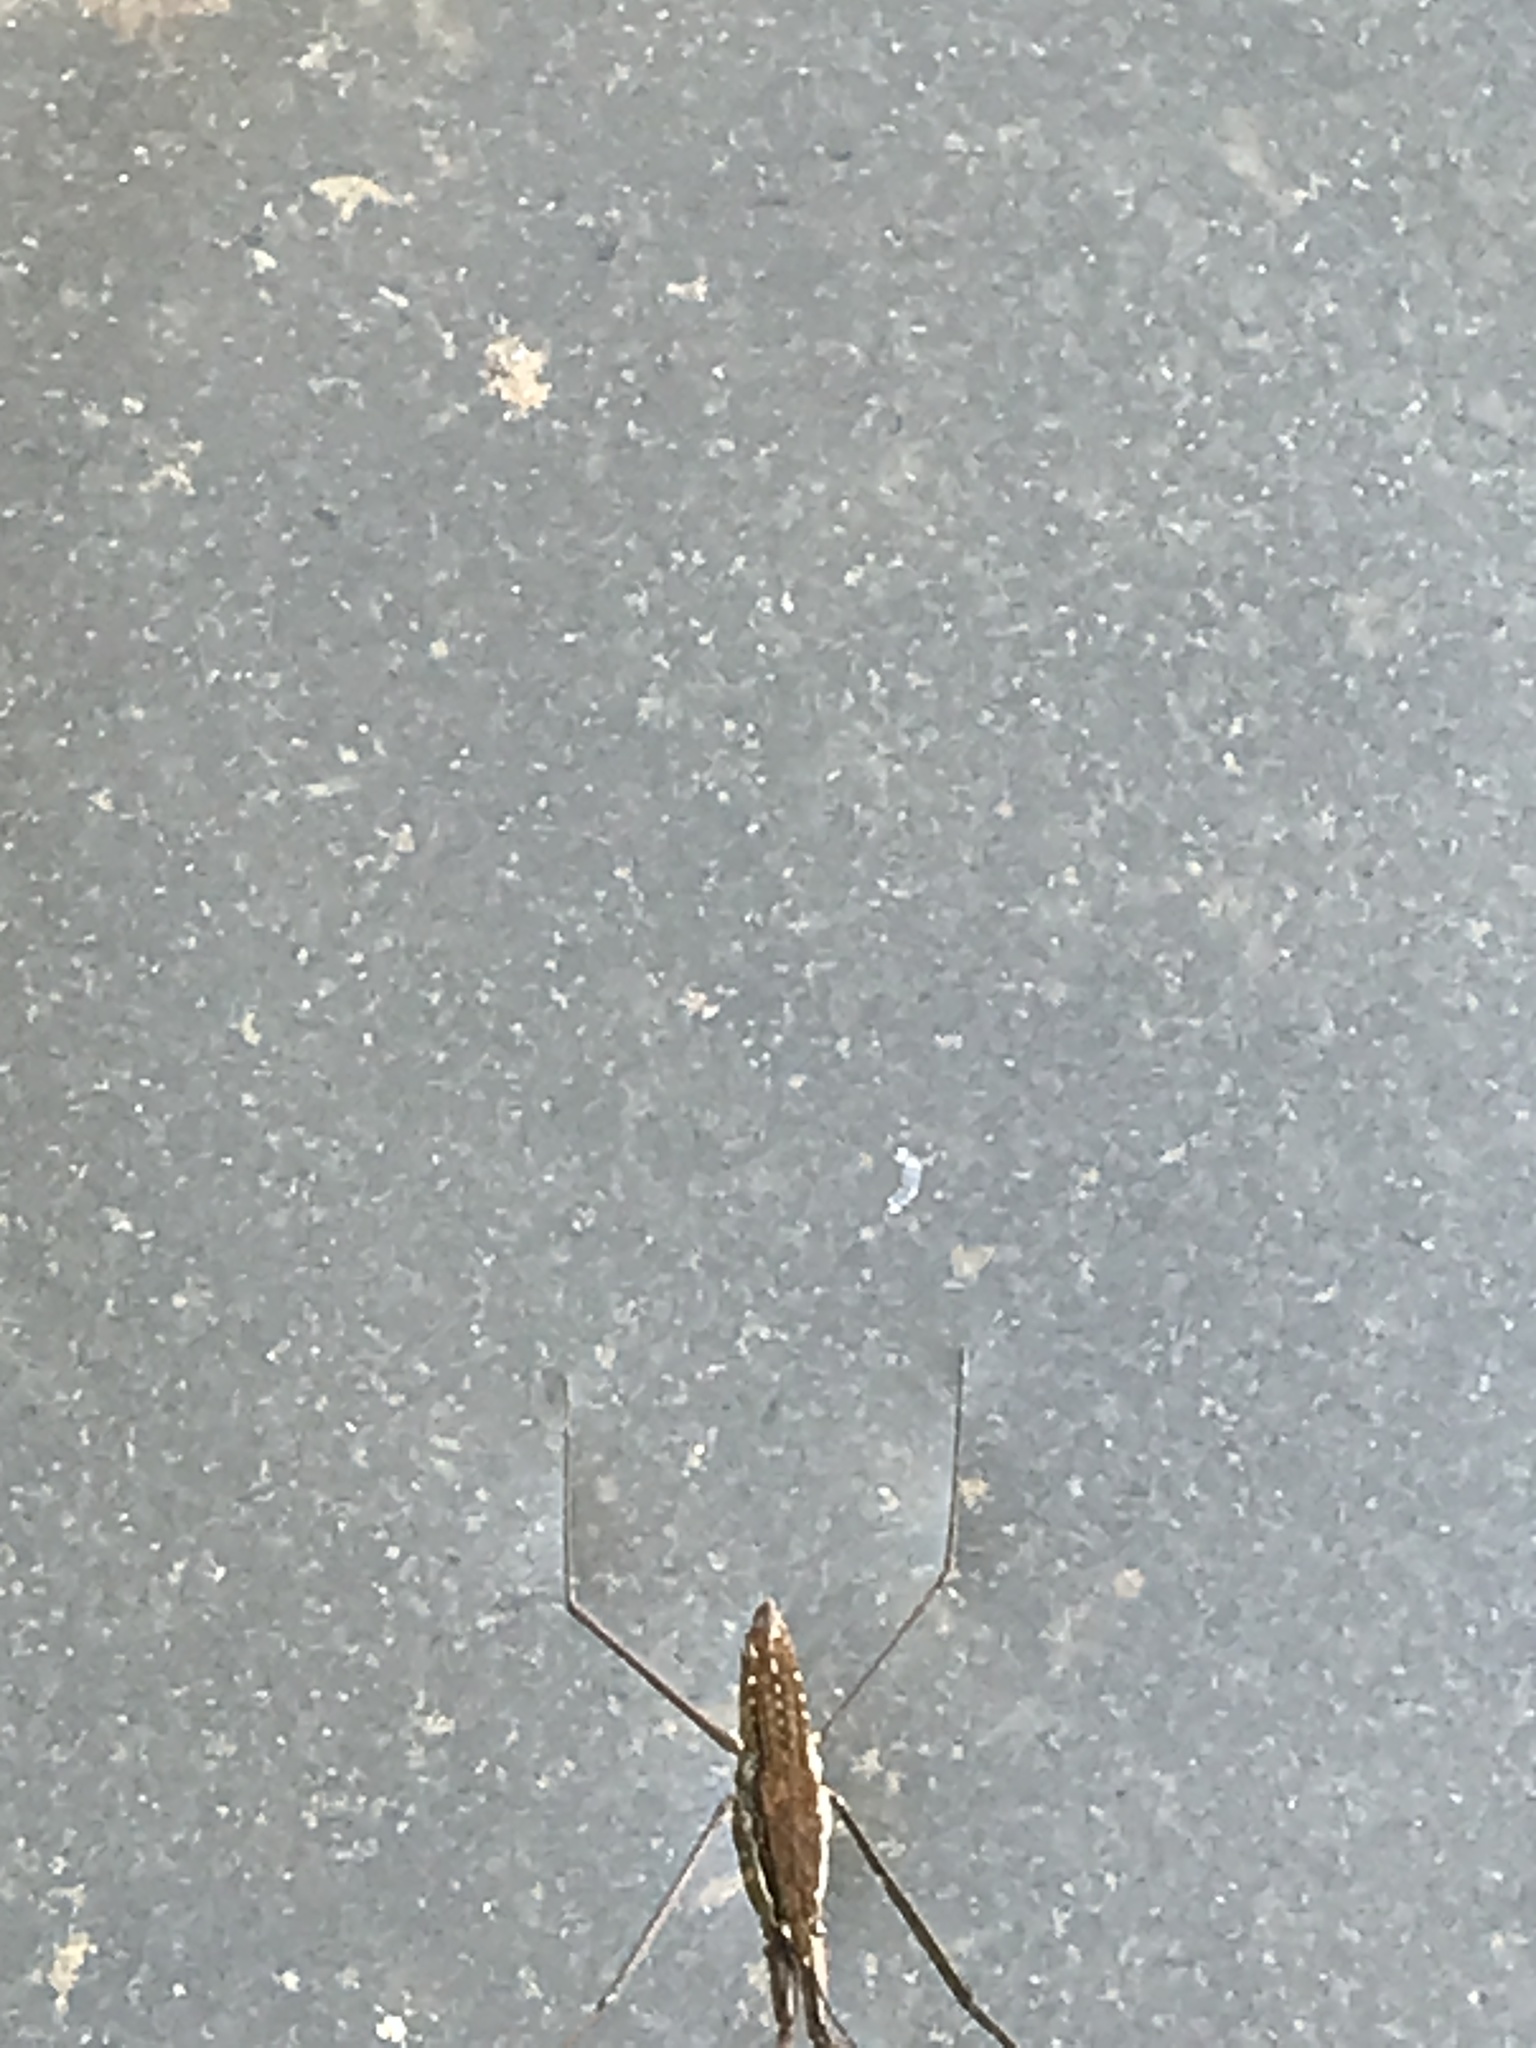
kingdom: Animalia
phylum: Arthropoda
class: Insecta
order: Hemiptera
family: Gerridae
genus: Aquarius
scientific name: Aquarius remigis
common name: Common water strider
